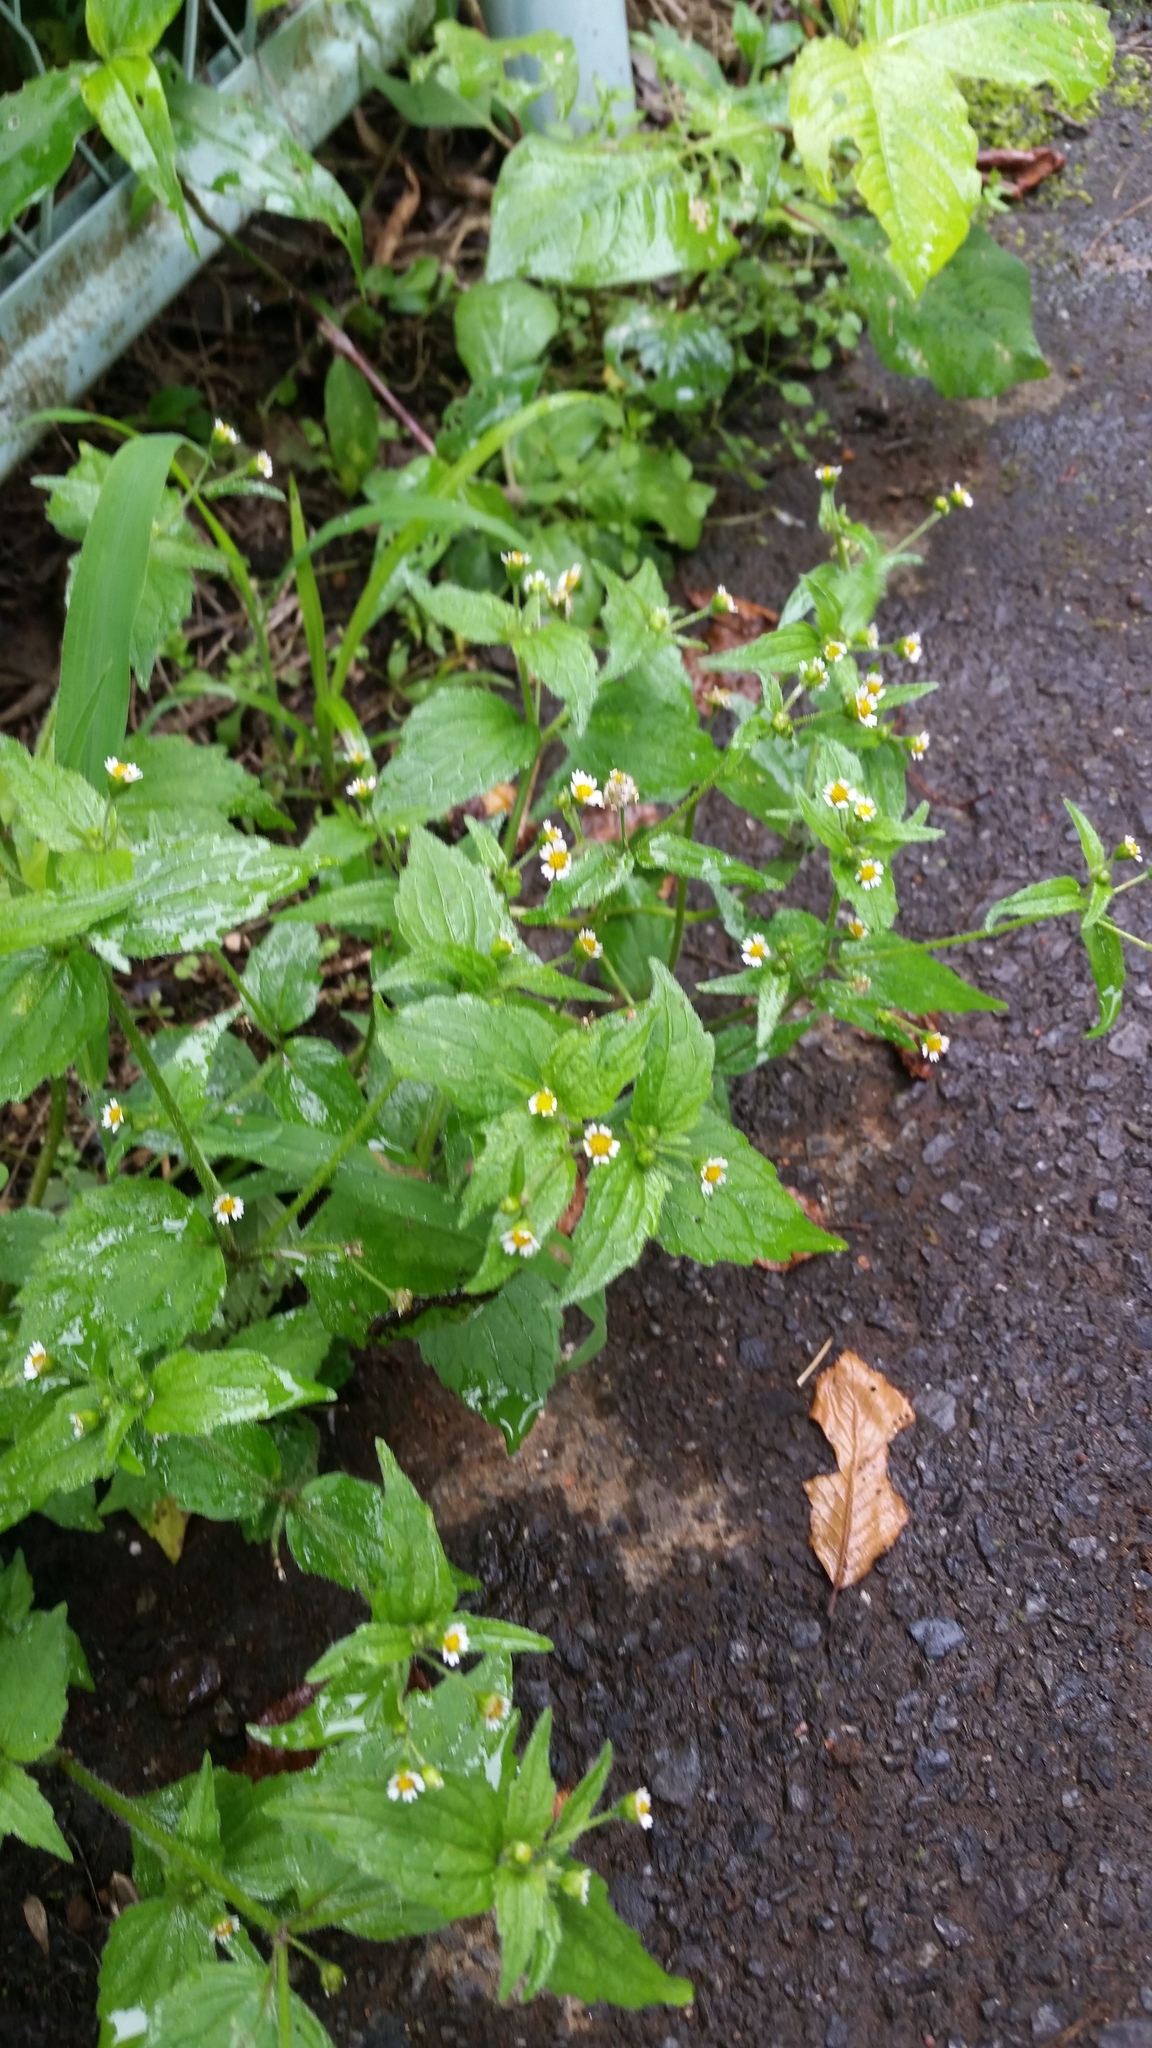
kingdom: Plantae
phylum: Tracheophyta
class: Magnoliopsida
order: Asterales
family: Asteraceae
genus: Galinsoga
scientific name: Galinsoga quadriradiata
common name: Shaggy soldier
